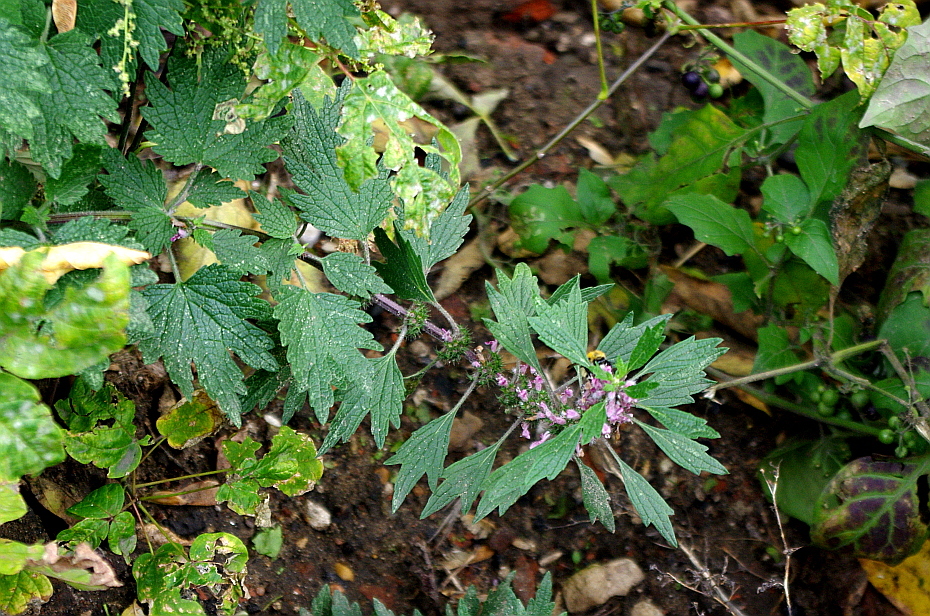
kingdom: Plantae
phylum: Tracheophyta
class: Magnoliopsida
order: Lamiales
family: Lamiaceae
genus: Leonurus
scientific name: Leonurus quinquelobatus
